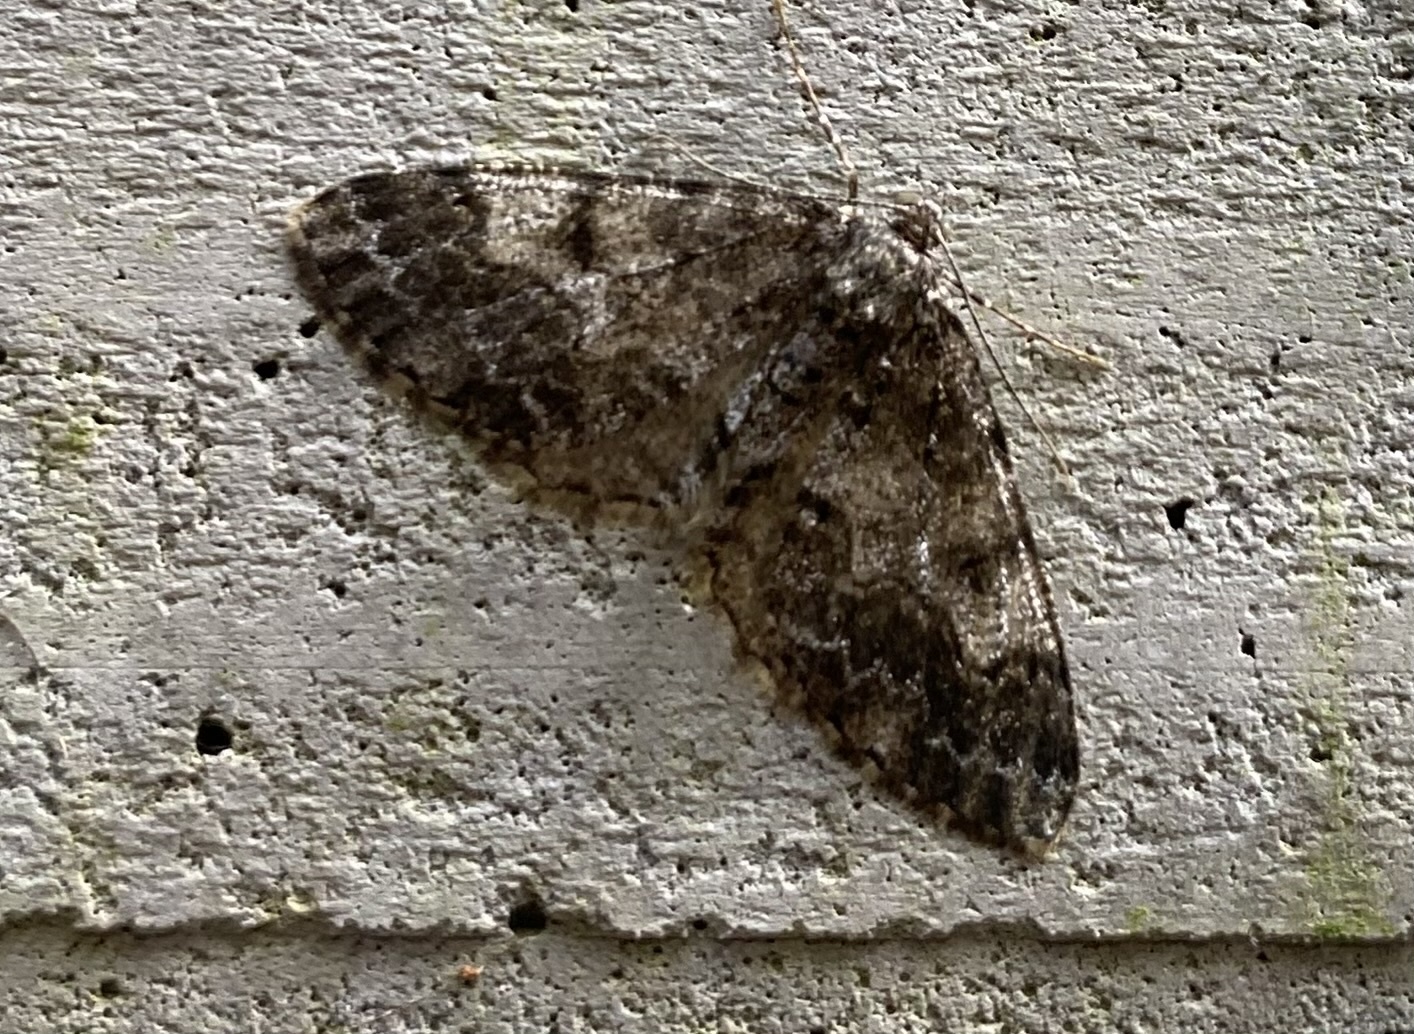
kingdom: Animalia
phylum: Arthropoda
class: Insecta
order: Lepidoptera
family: Geometridae
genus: Alcis
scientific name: Alcis angulifera
